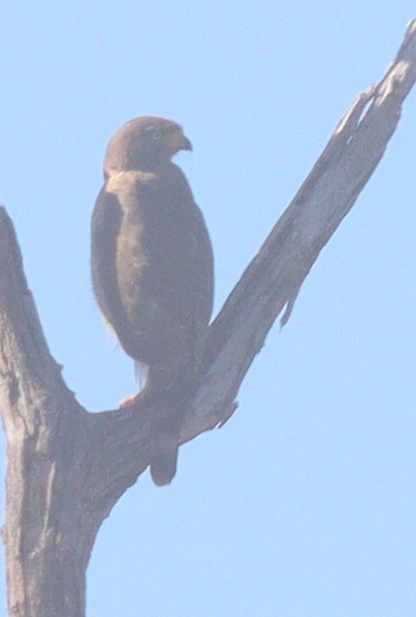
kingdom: Animalia
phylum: Chordata
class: Aves
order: Accipitriformes
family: Accipitridae
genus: Rupornis
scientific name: Rupornis magnirostris
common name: Roadside hawk
